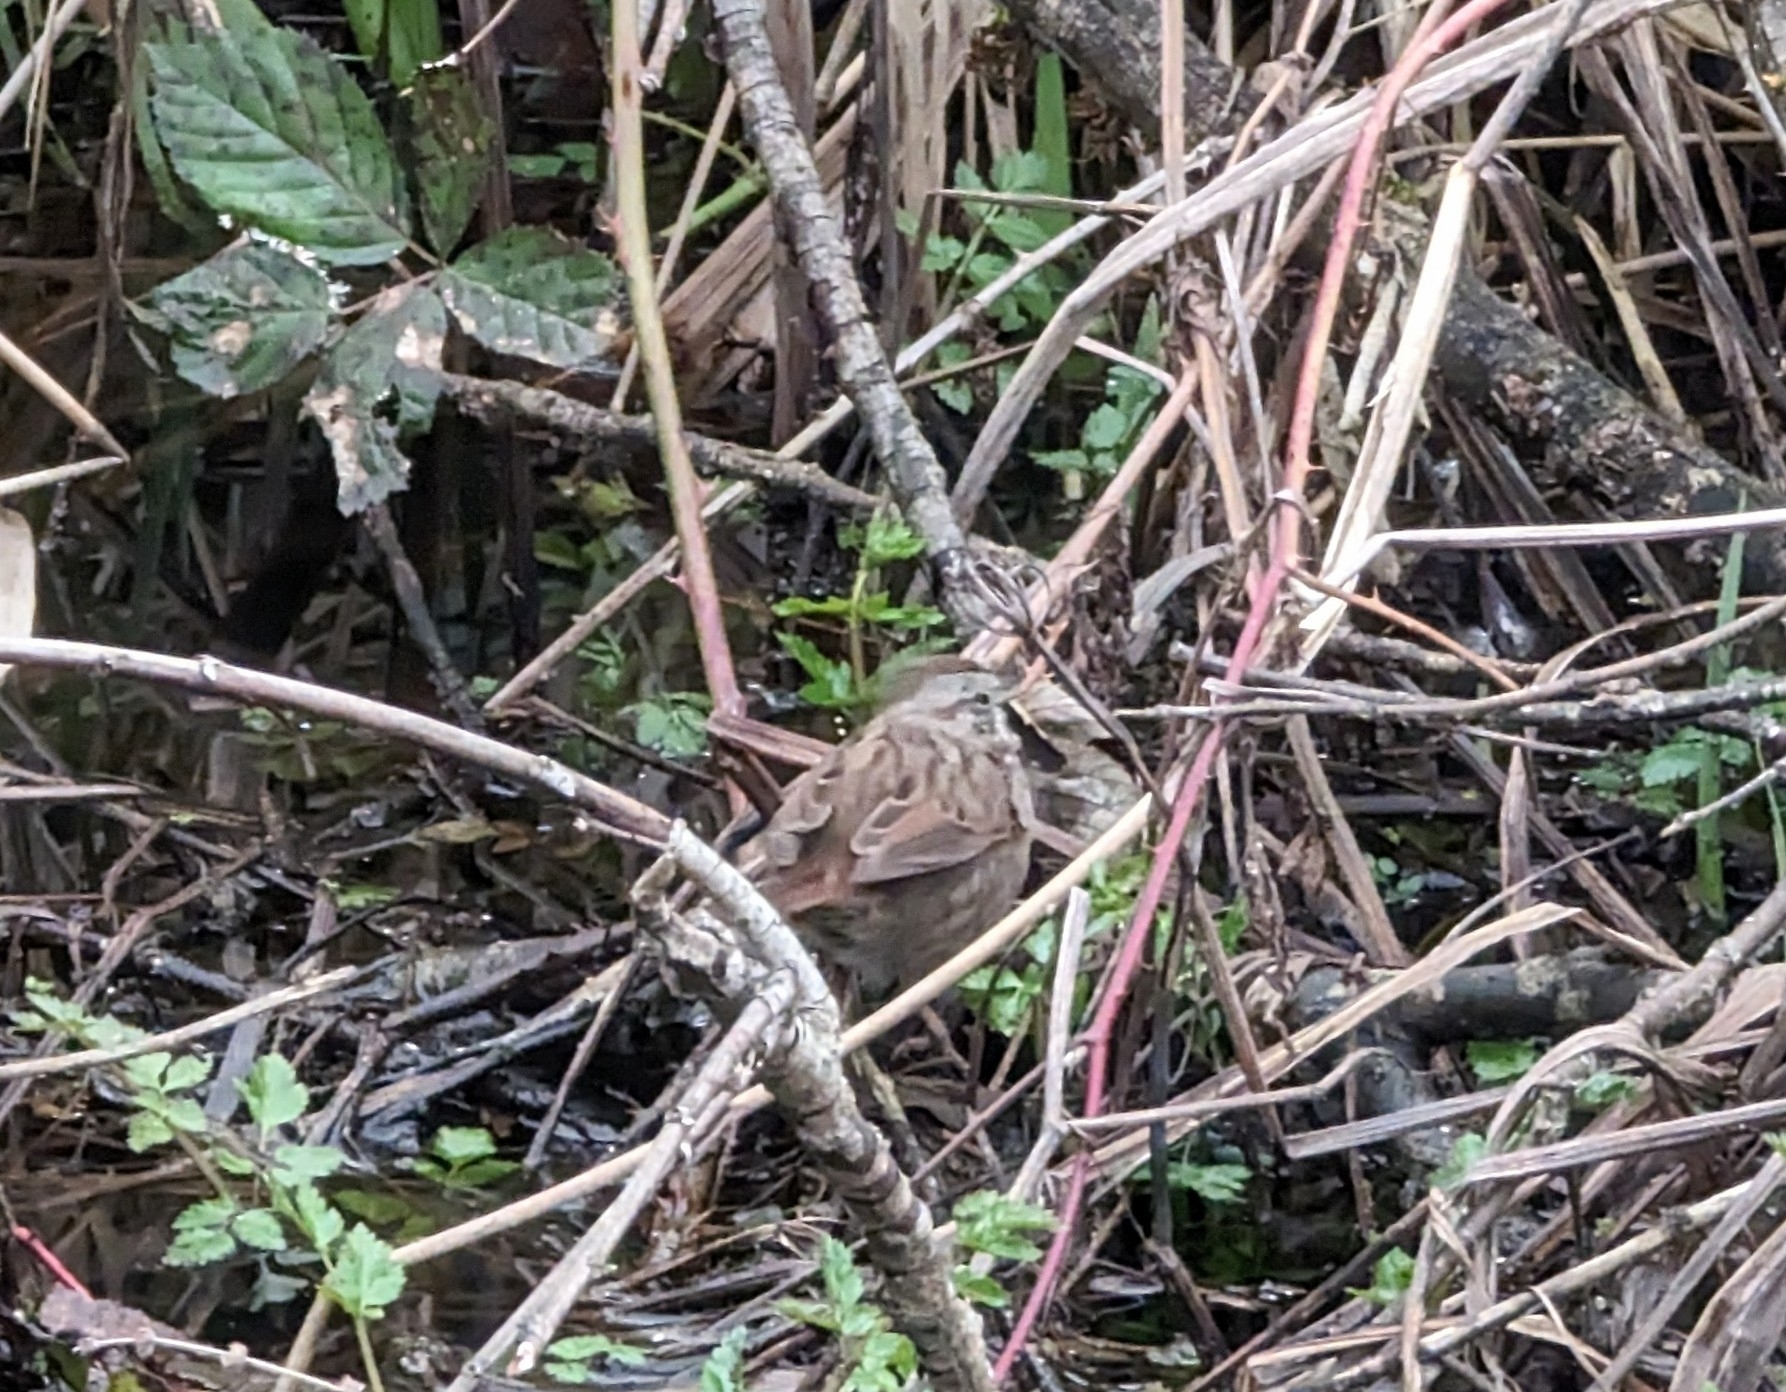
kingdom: Animalia
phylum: Chordata
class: Aves
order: Passeriformes
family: Passerellidae
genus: Melospiza
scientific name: Melospiza melodia
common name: Song sparrow
